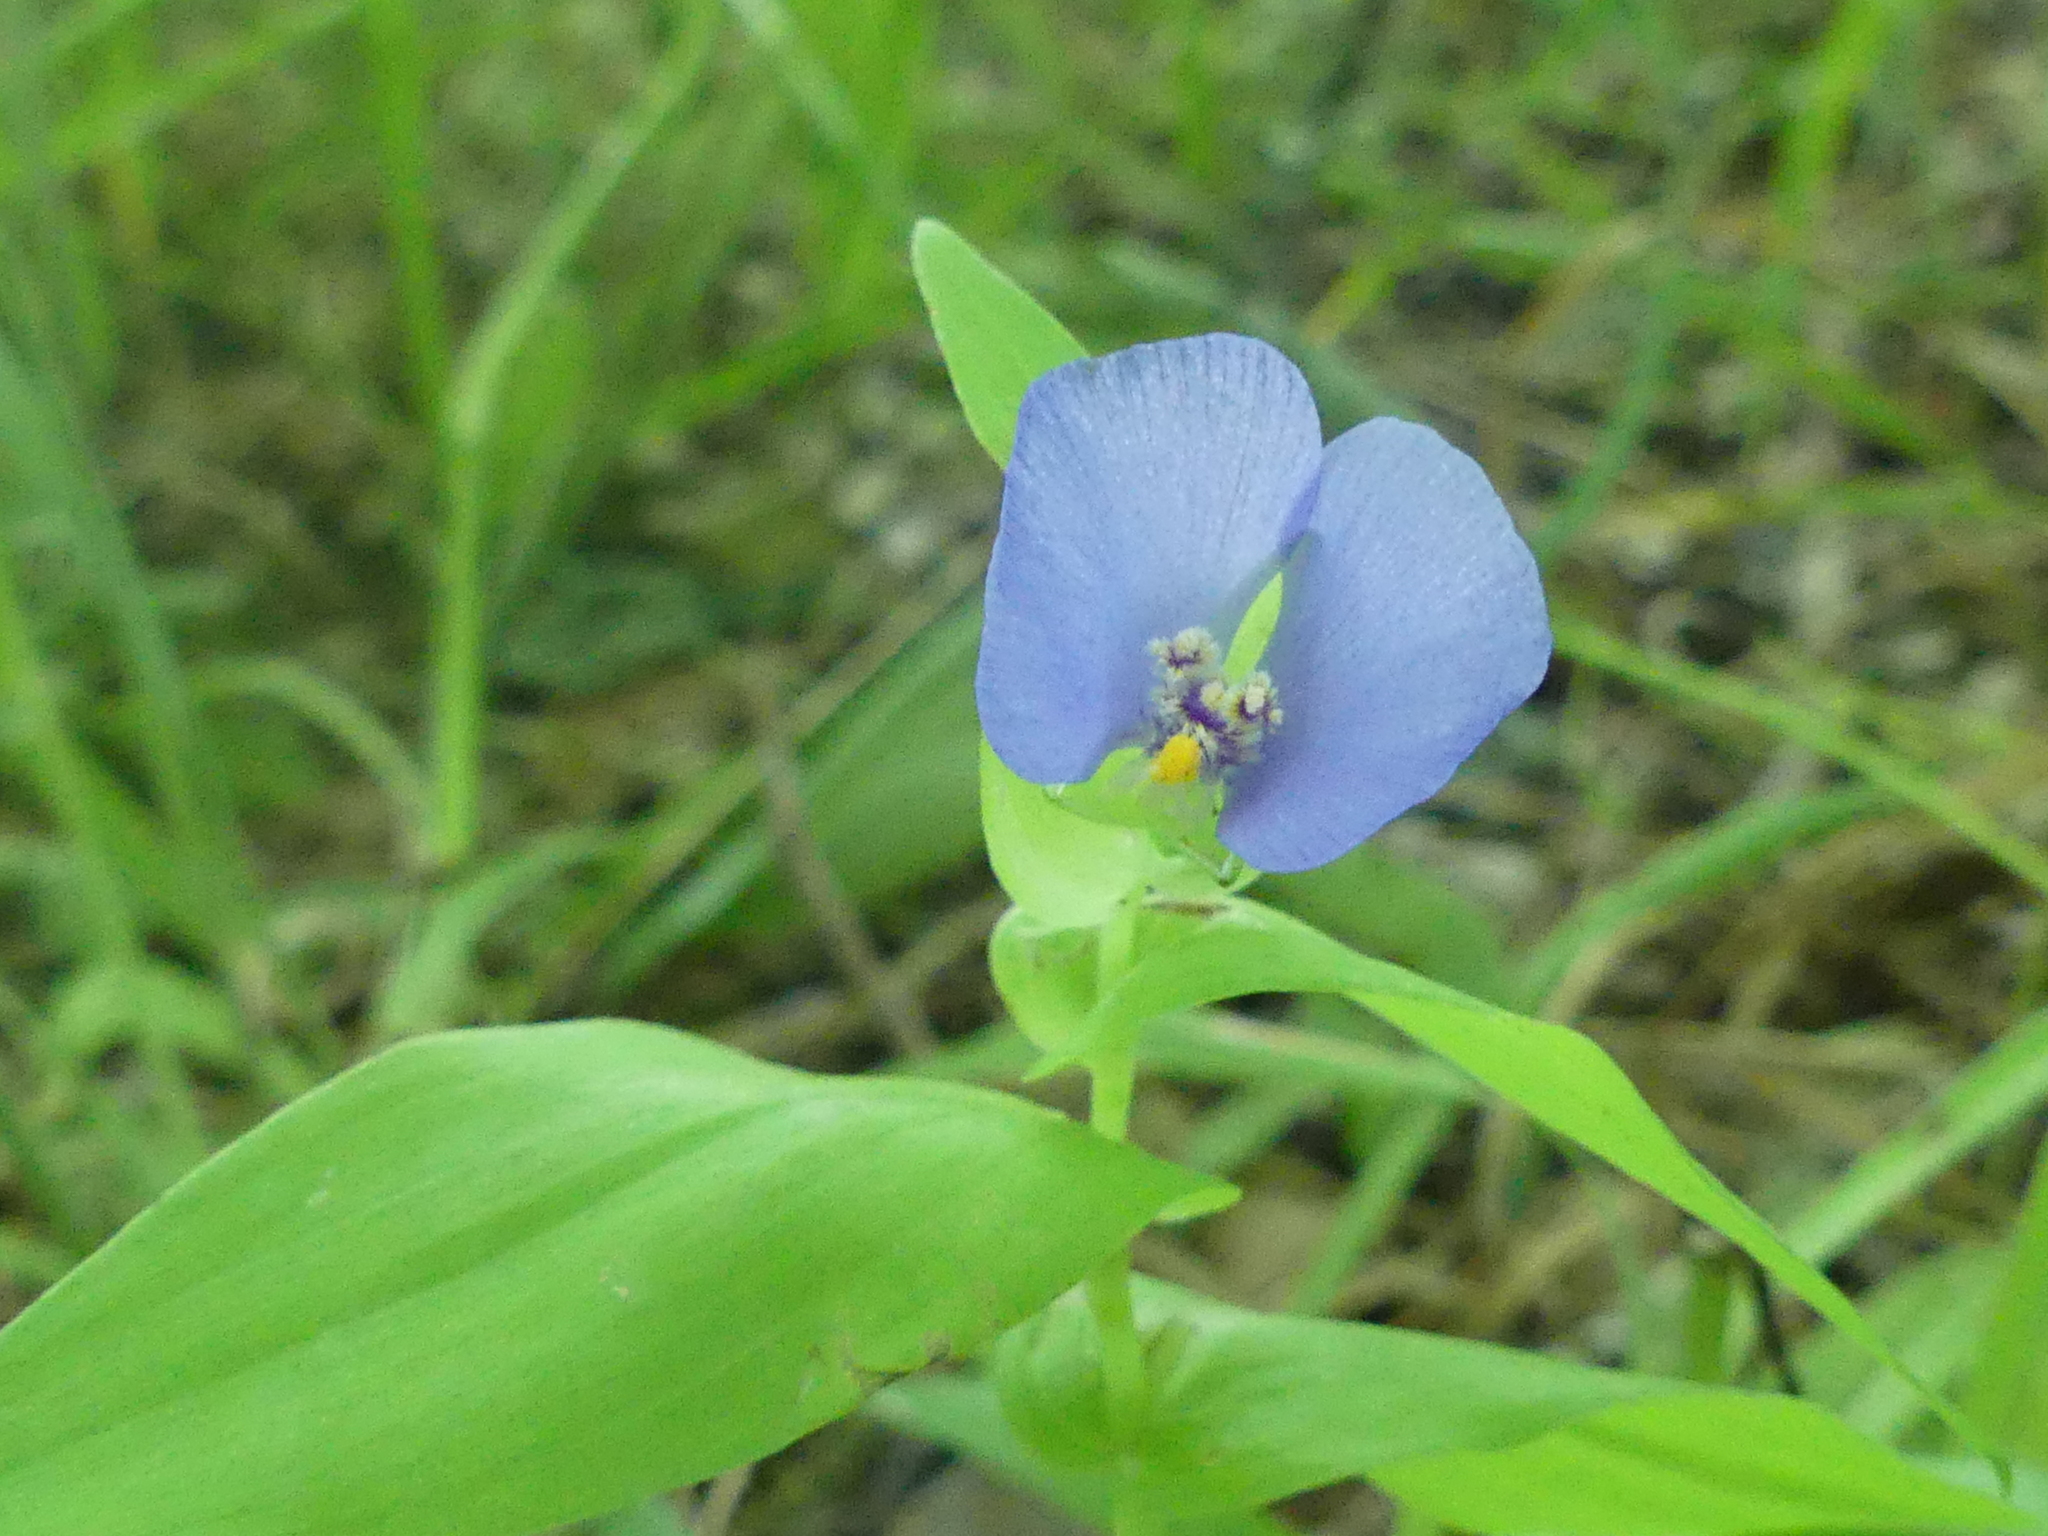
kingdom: Plantae
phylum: Tracheophyta
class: Liliopsida
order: Commelinales
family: Commelinaceae
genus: Tinantia
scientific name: Tinantia anomala
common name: False dayflower
